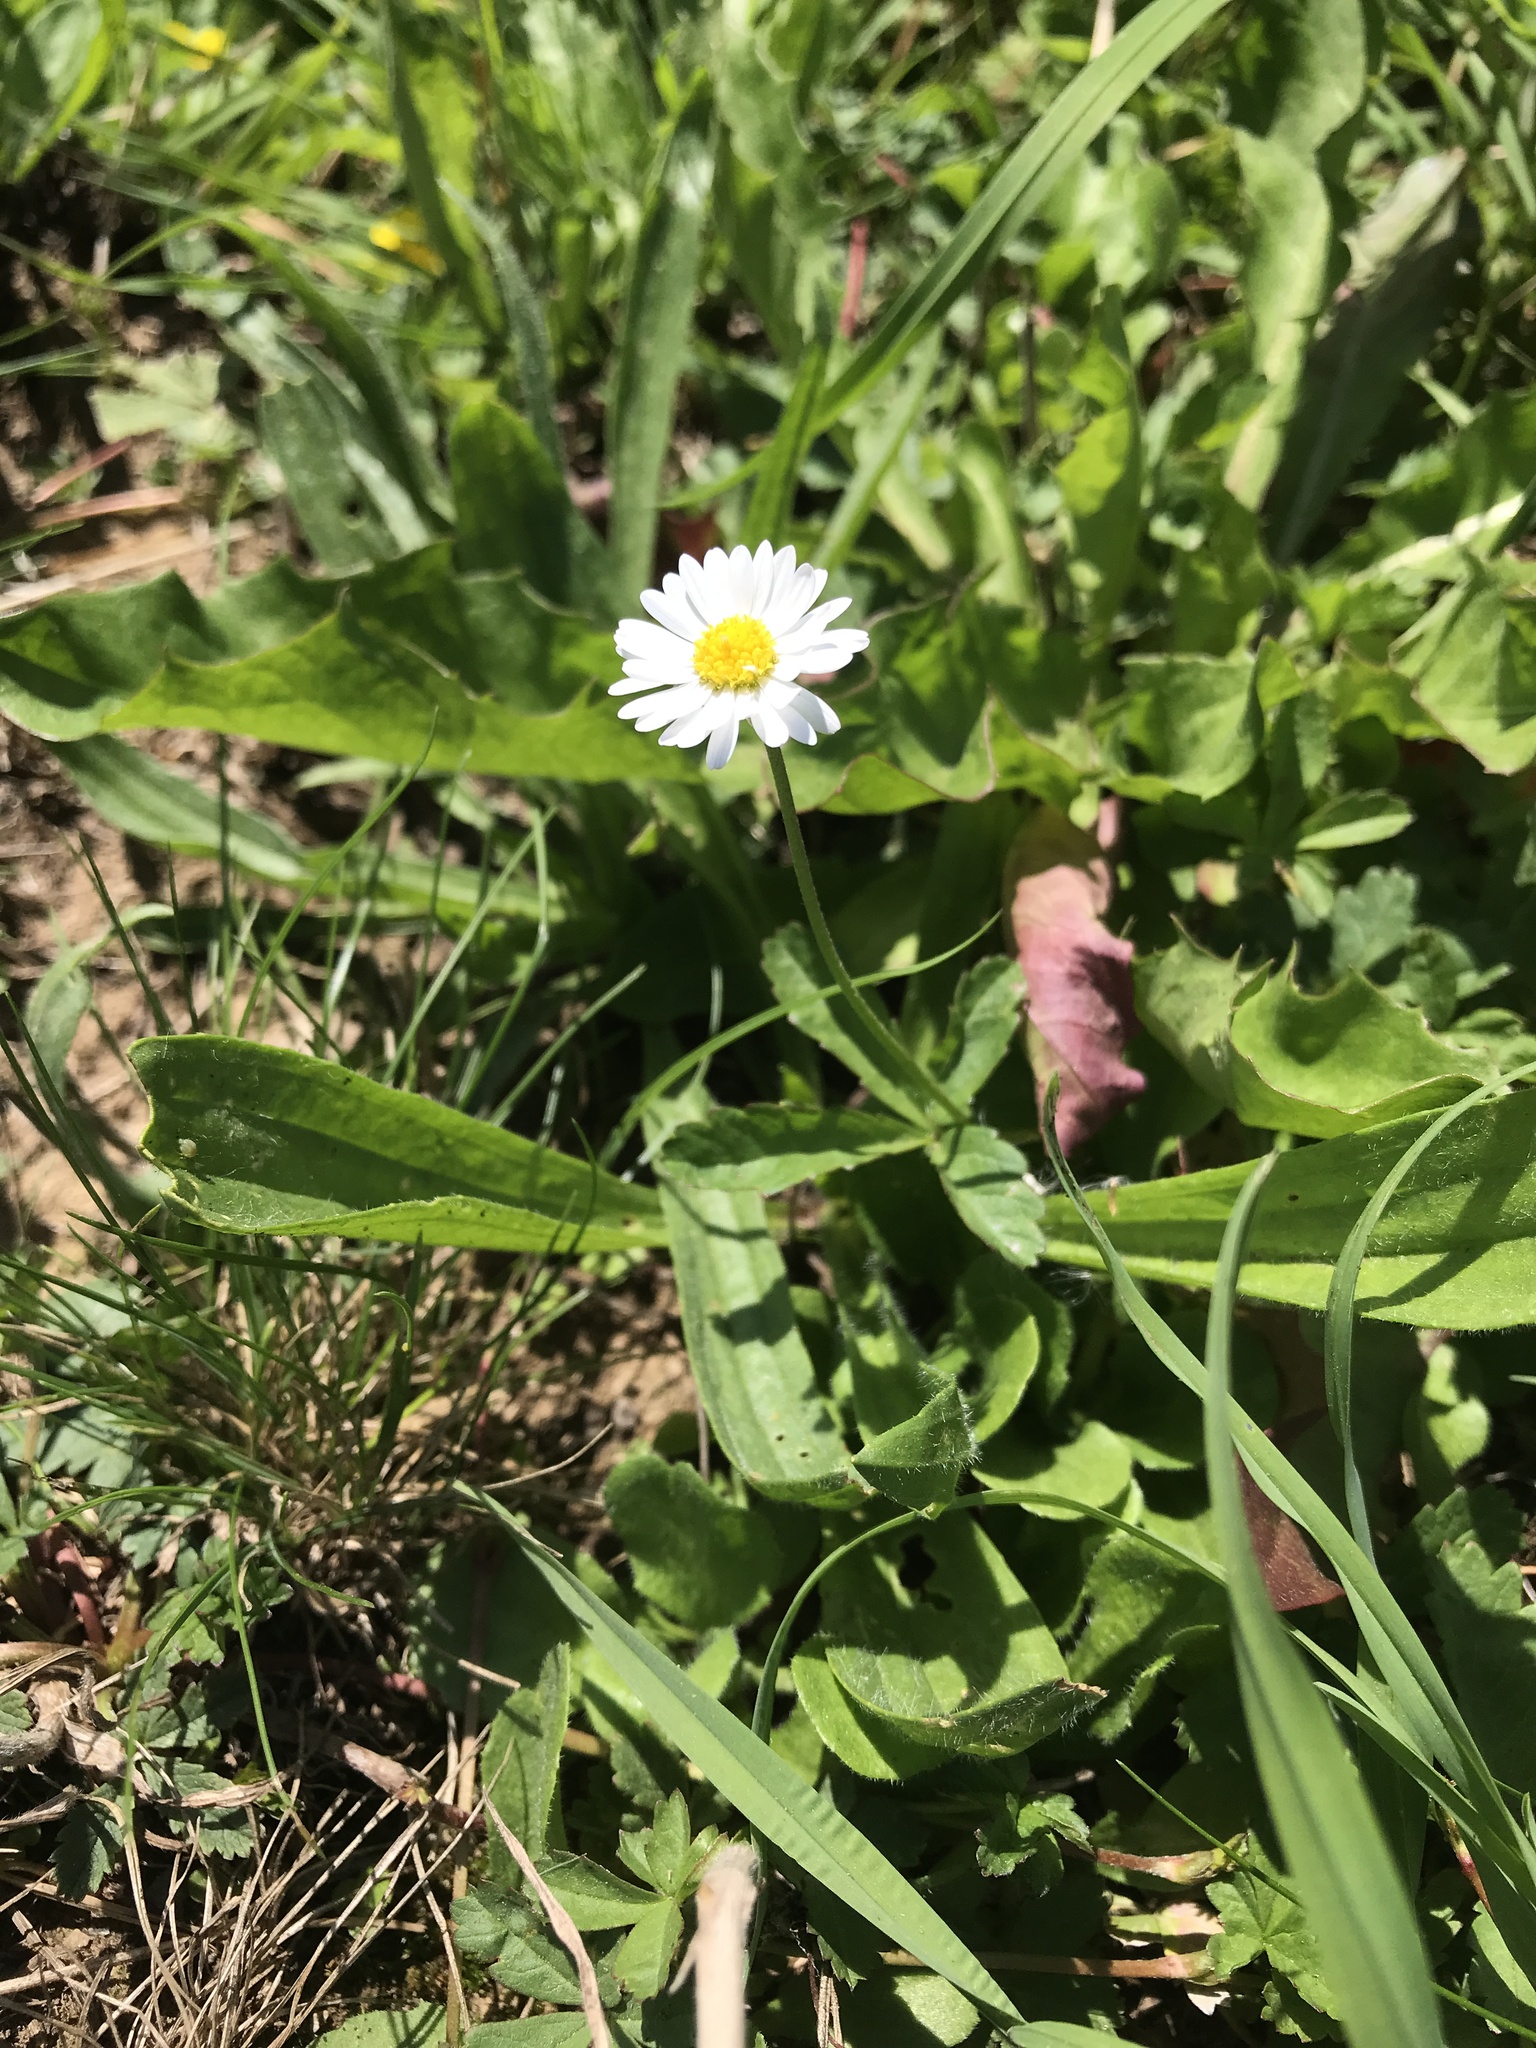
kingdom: Plantae
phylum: Tracheophyta
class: Magnoliopsida
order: Asterales
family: Asteraceae
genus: Bellis
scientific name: Bellis perennis
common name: Lawndaisy
